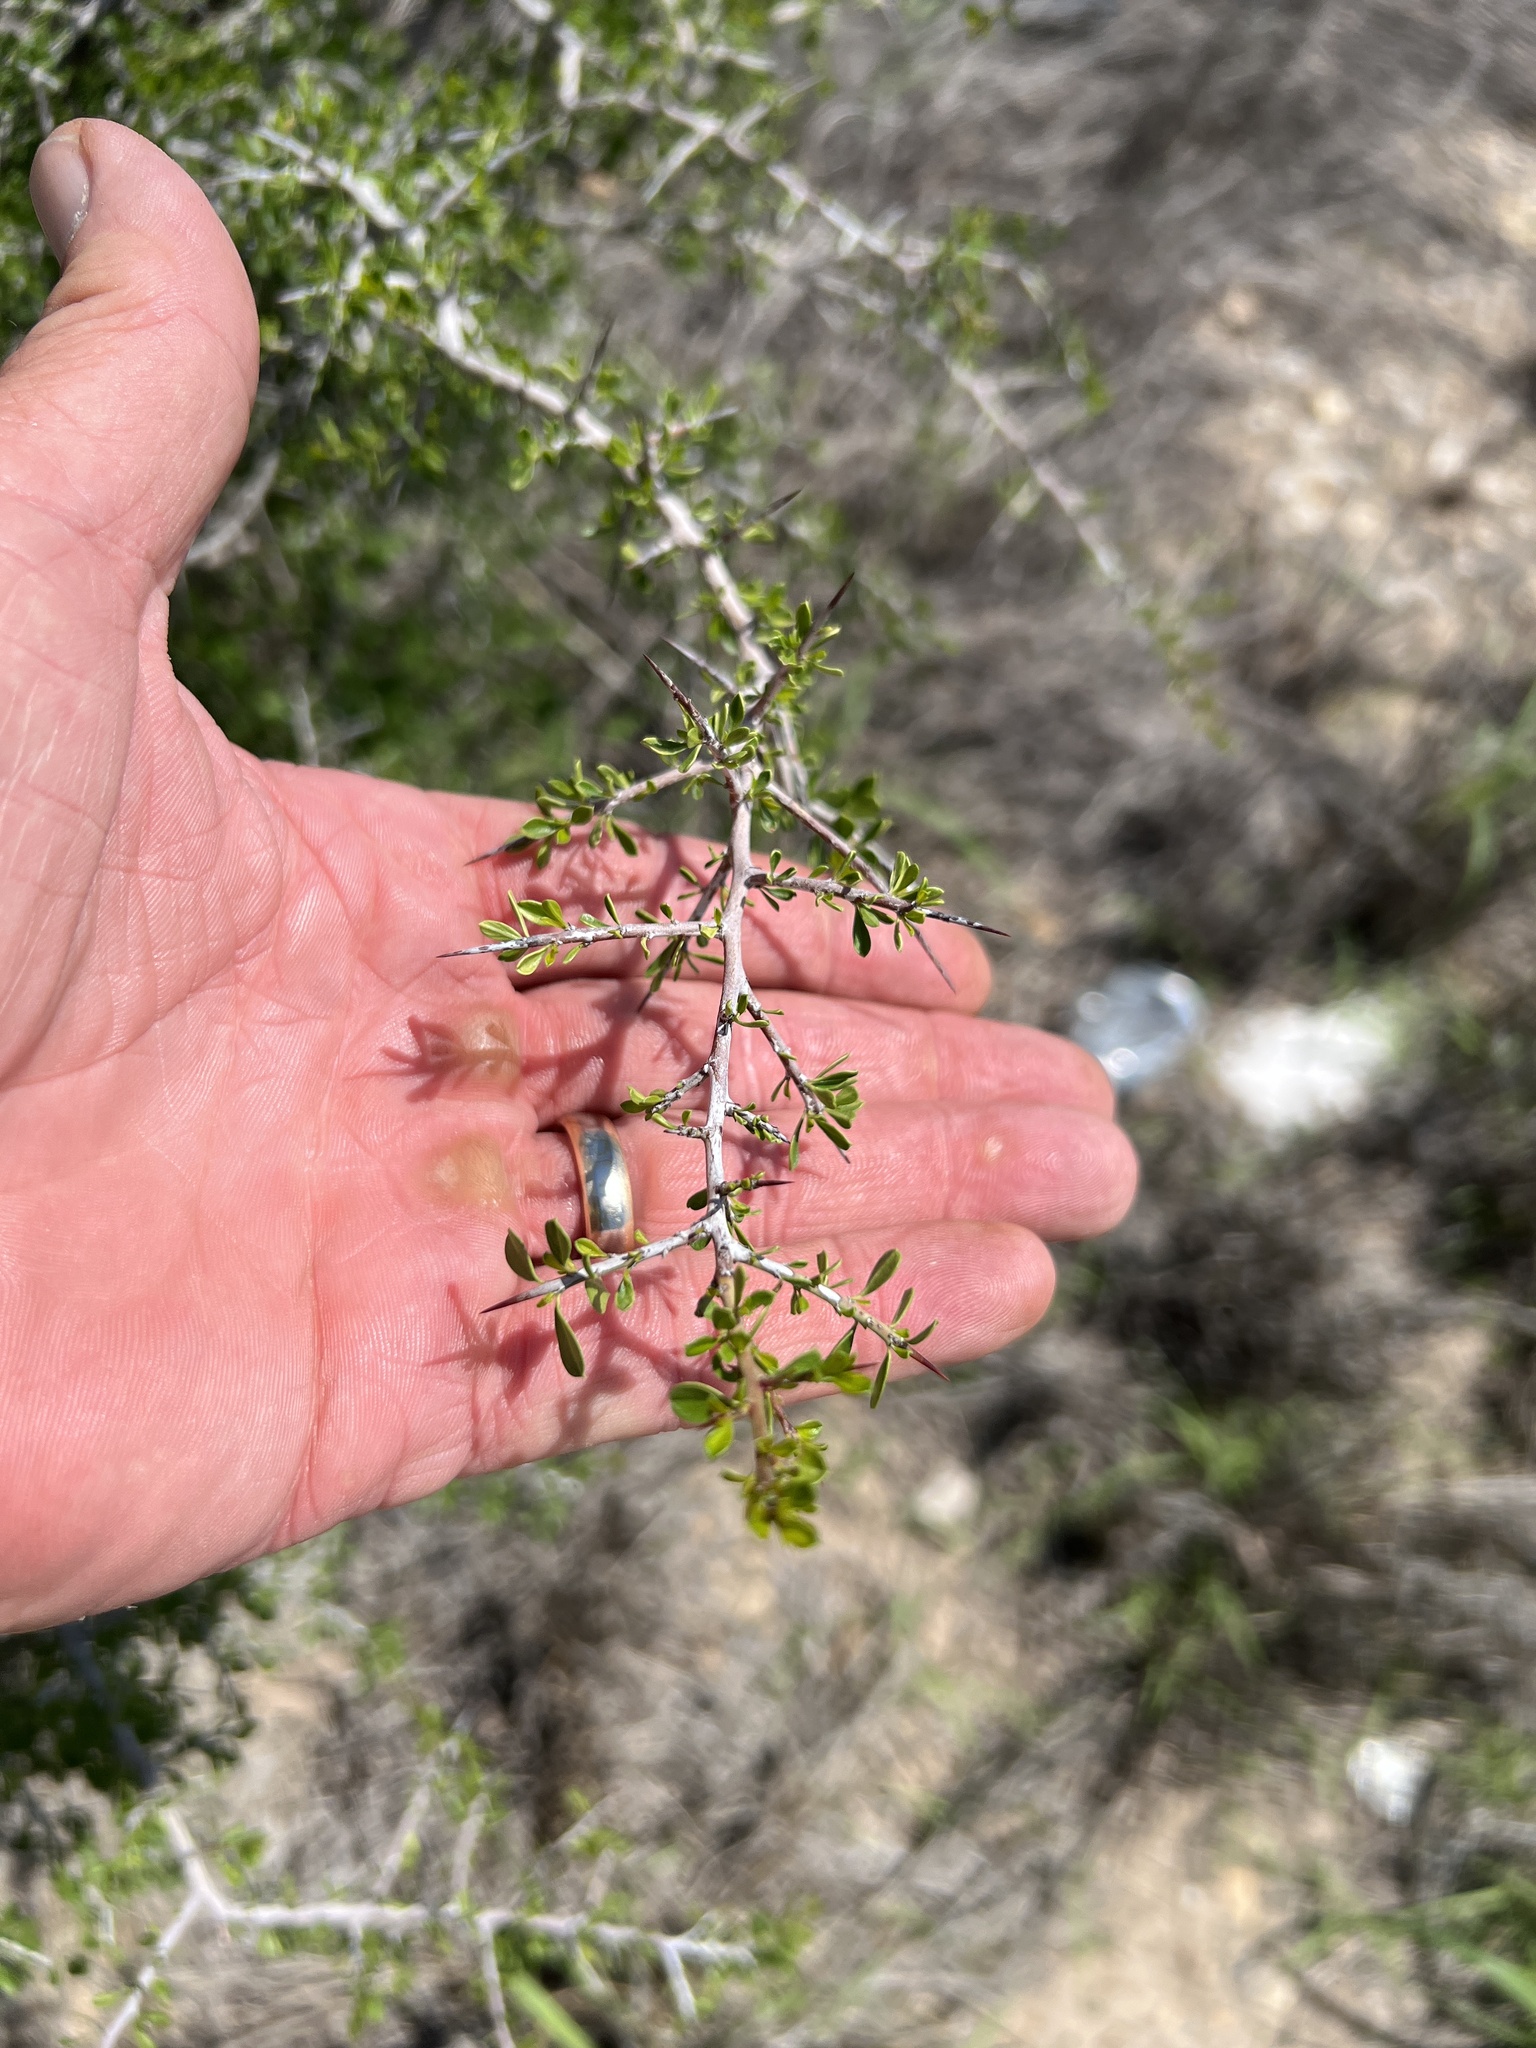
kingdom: Plantae
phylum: Tracheophyta
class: Magnoliopsida
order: Rosales
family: Rhamnaceae
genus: Condalia
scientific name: Condalia viridis
